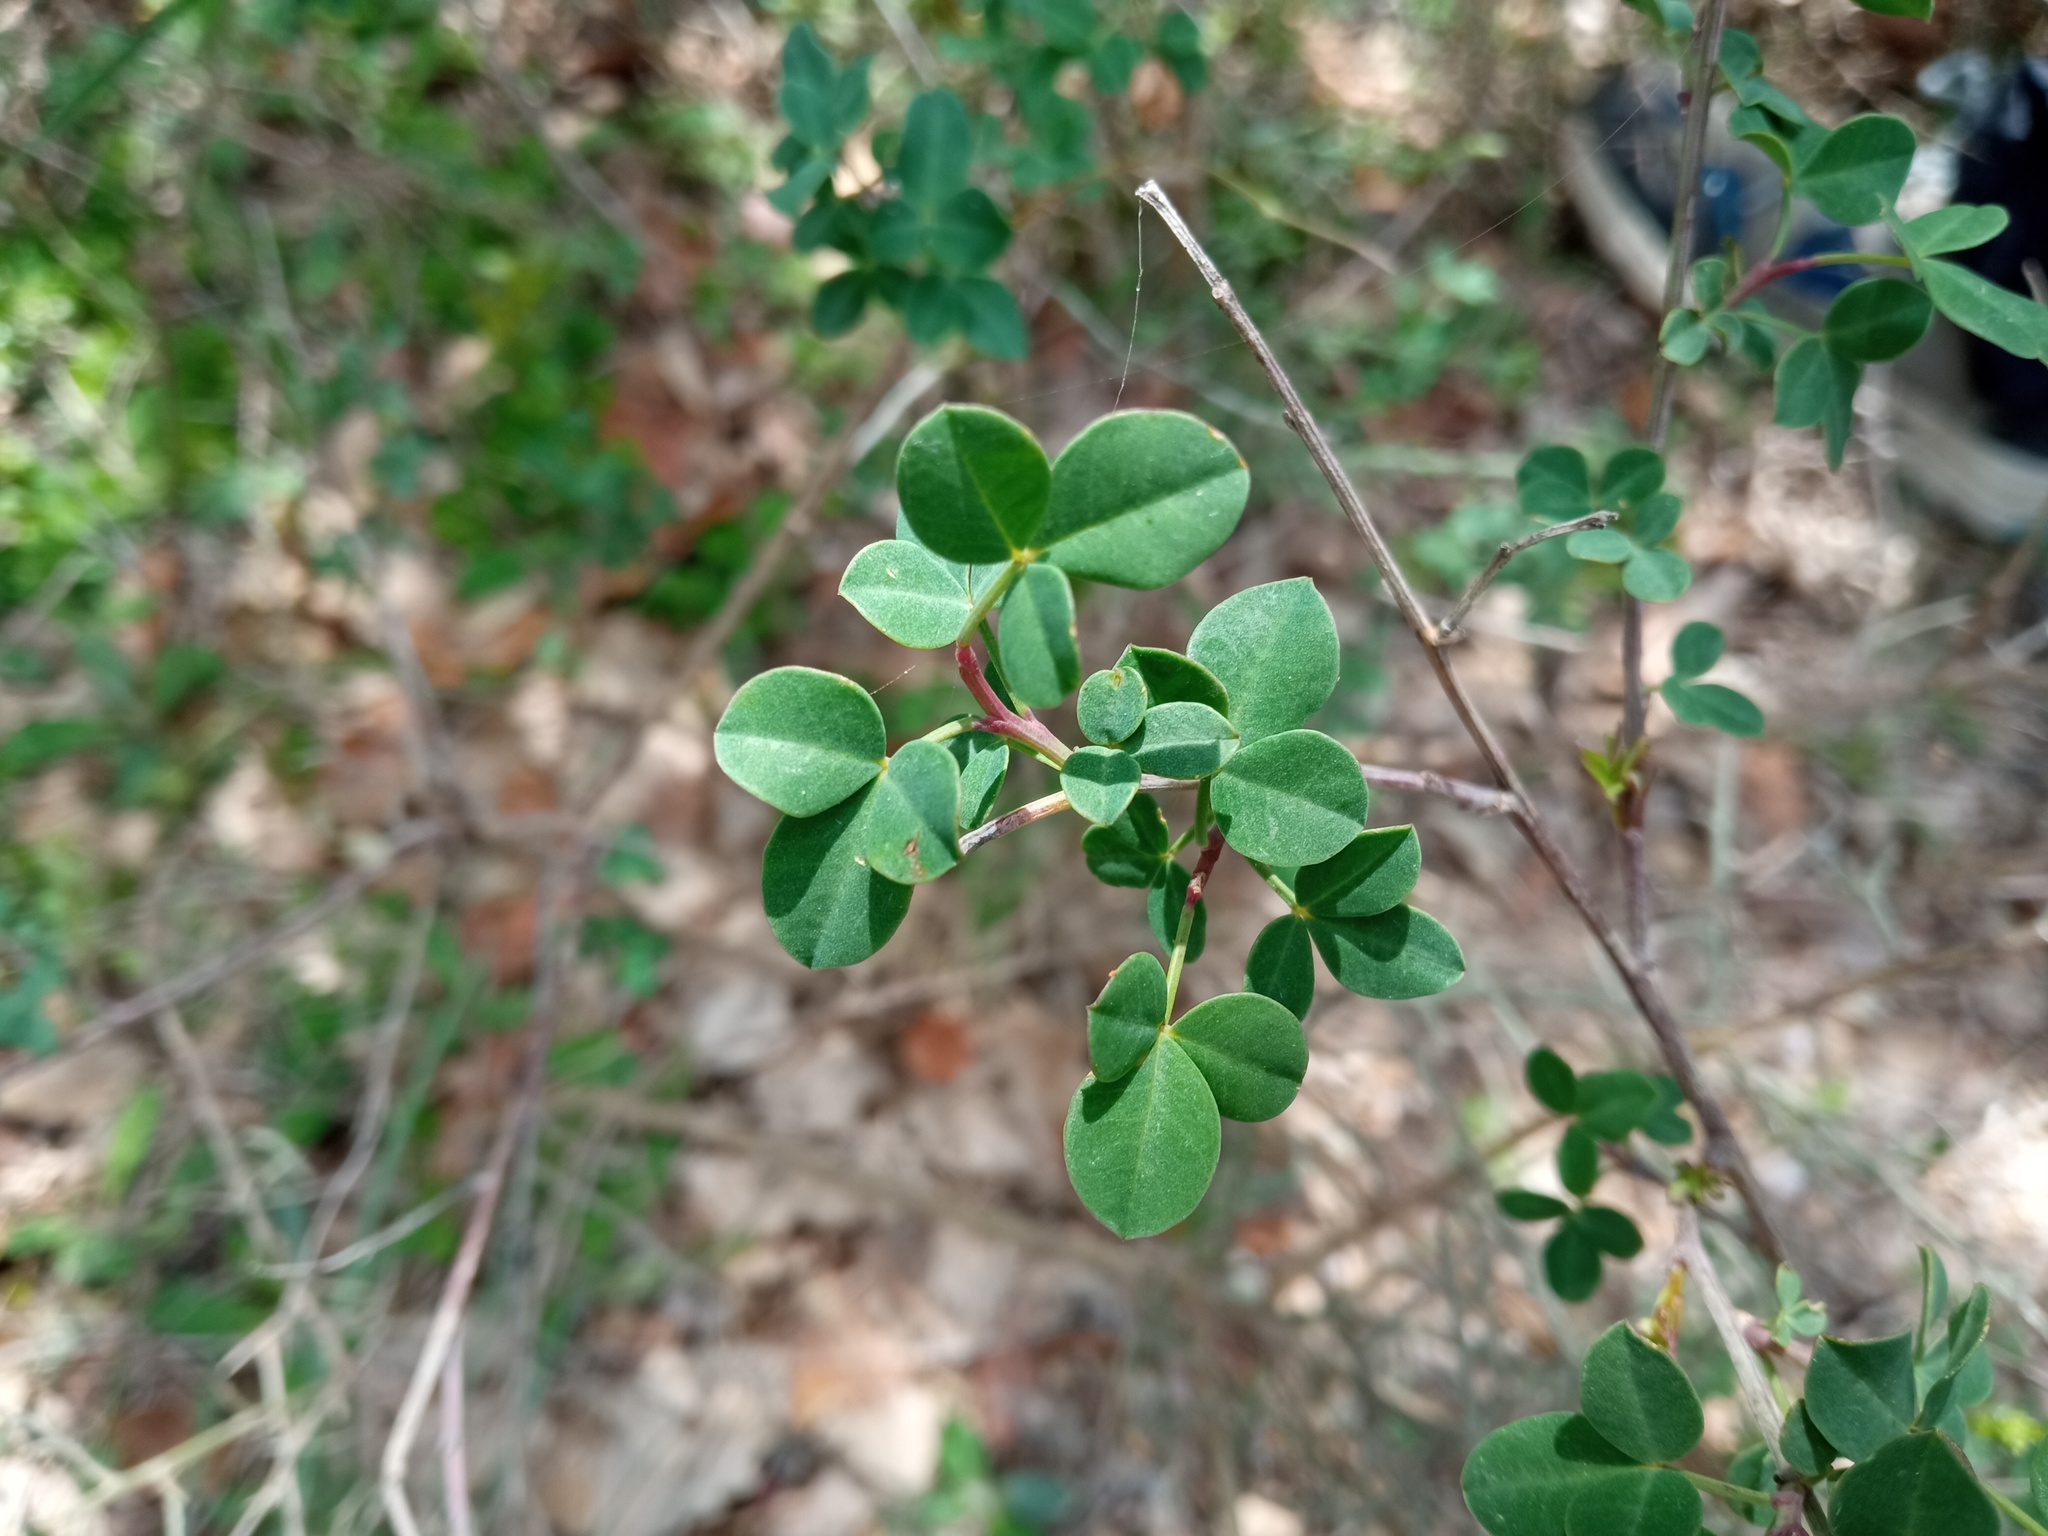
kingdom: Plantae
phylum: Tracheophyta
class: Magnoliopsida
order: Fabales
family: Fabaceae
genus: Cytisophyllum
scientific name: Cytisophyllum sessilifolium
